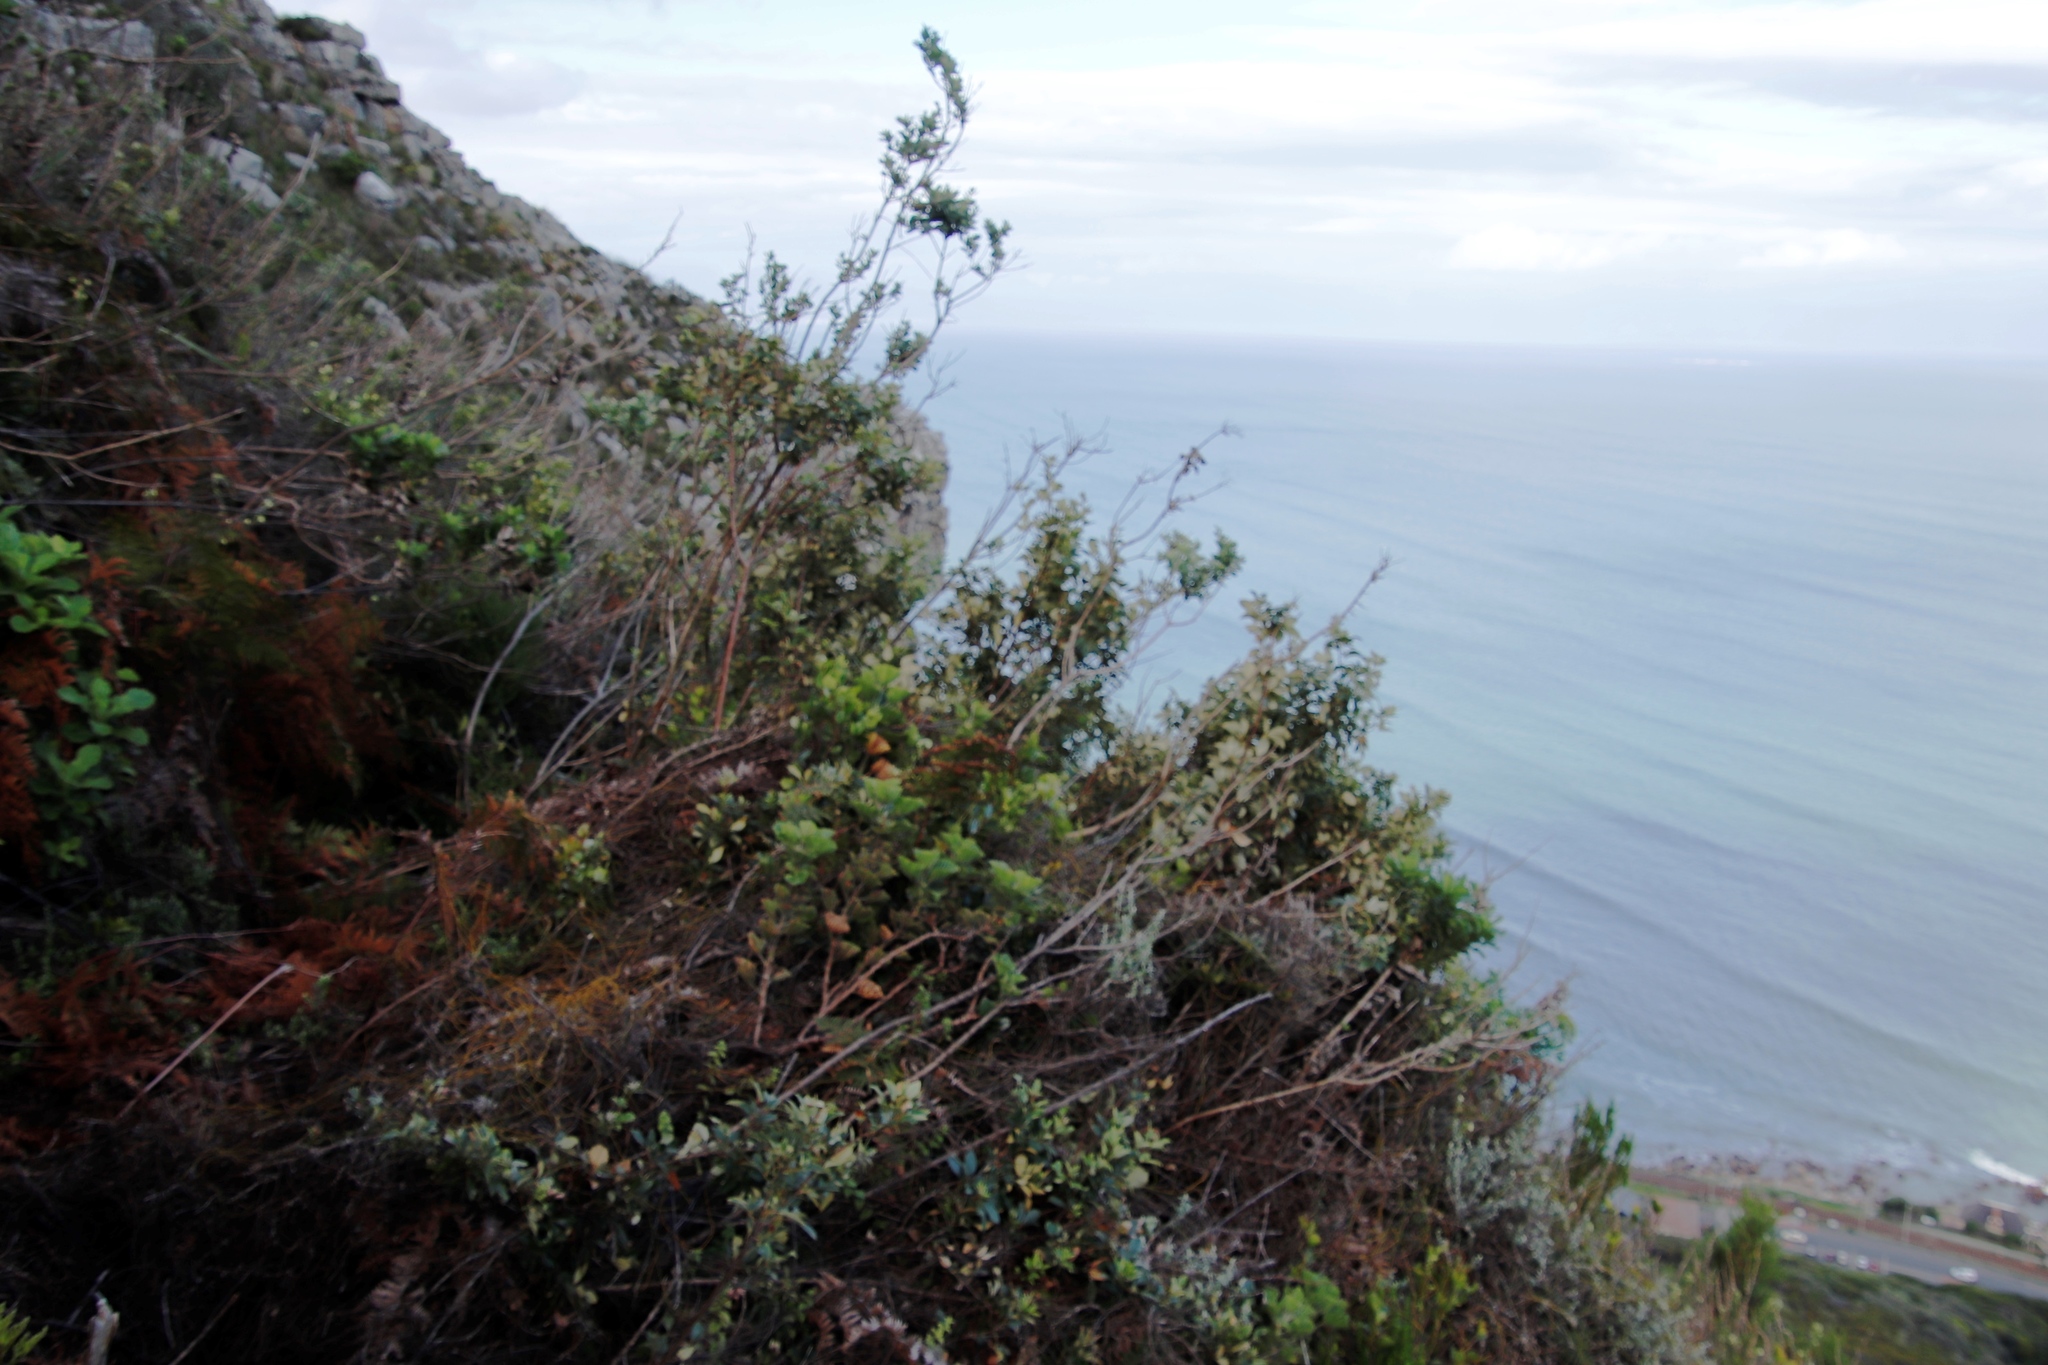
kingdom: Plantae
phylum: Tracheophyta
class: Magnoliopsida
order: Asterales
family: Asteraceae
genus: Tarchonanthus
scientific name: Tarchonanthus littoralis
